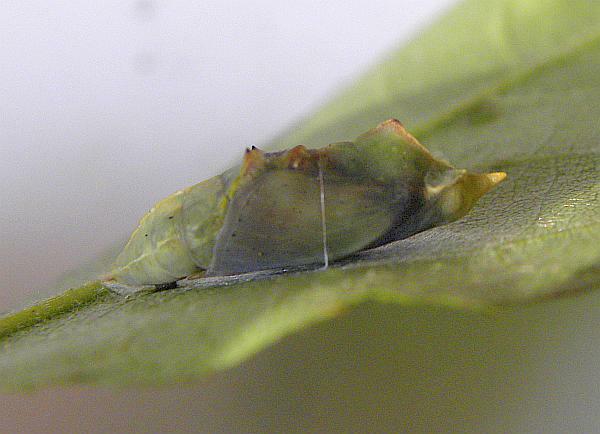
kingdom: Animalia
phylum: Arthropoda
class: Insecta
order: Lepidoptera
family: Pieridae
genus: Pieris
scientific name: Pieris rapae
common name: Small white
